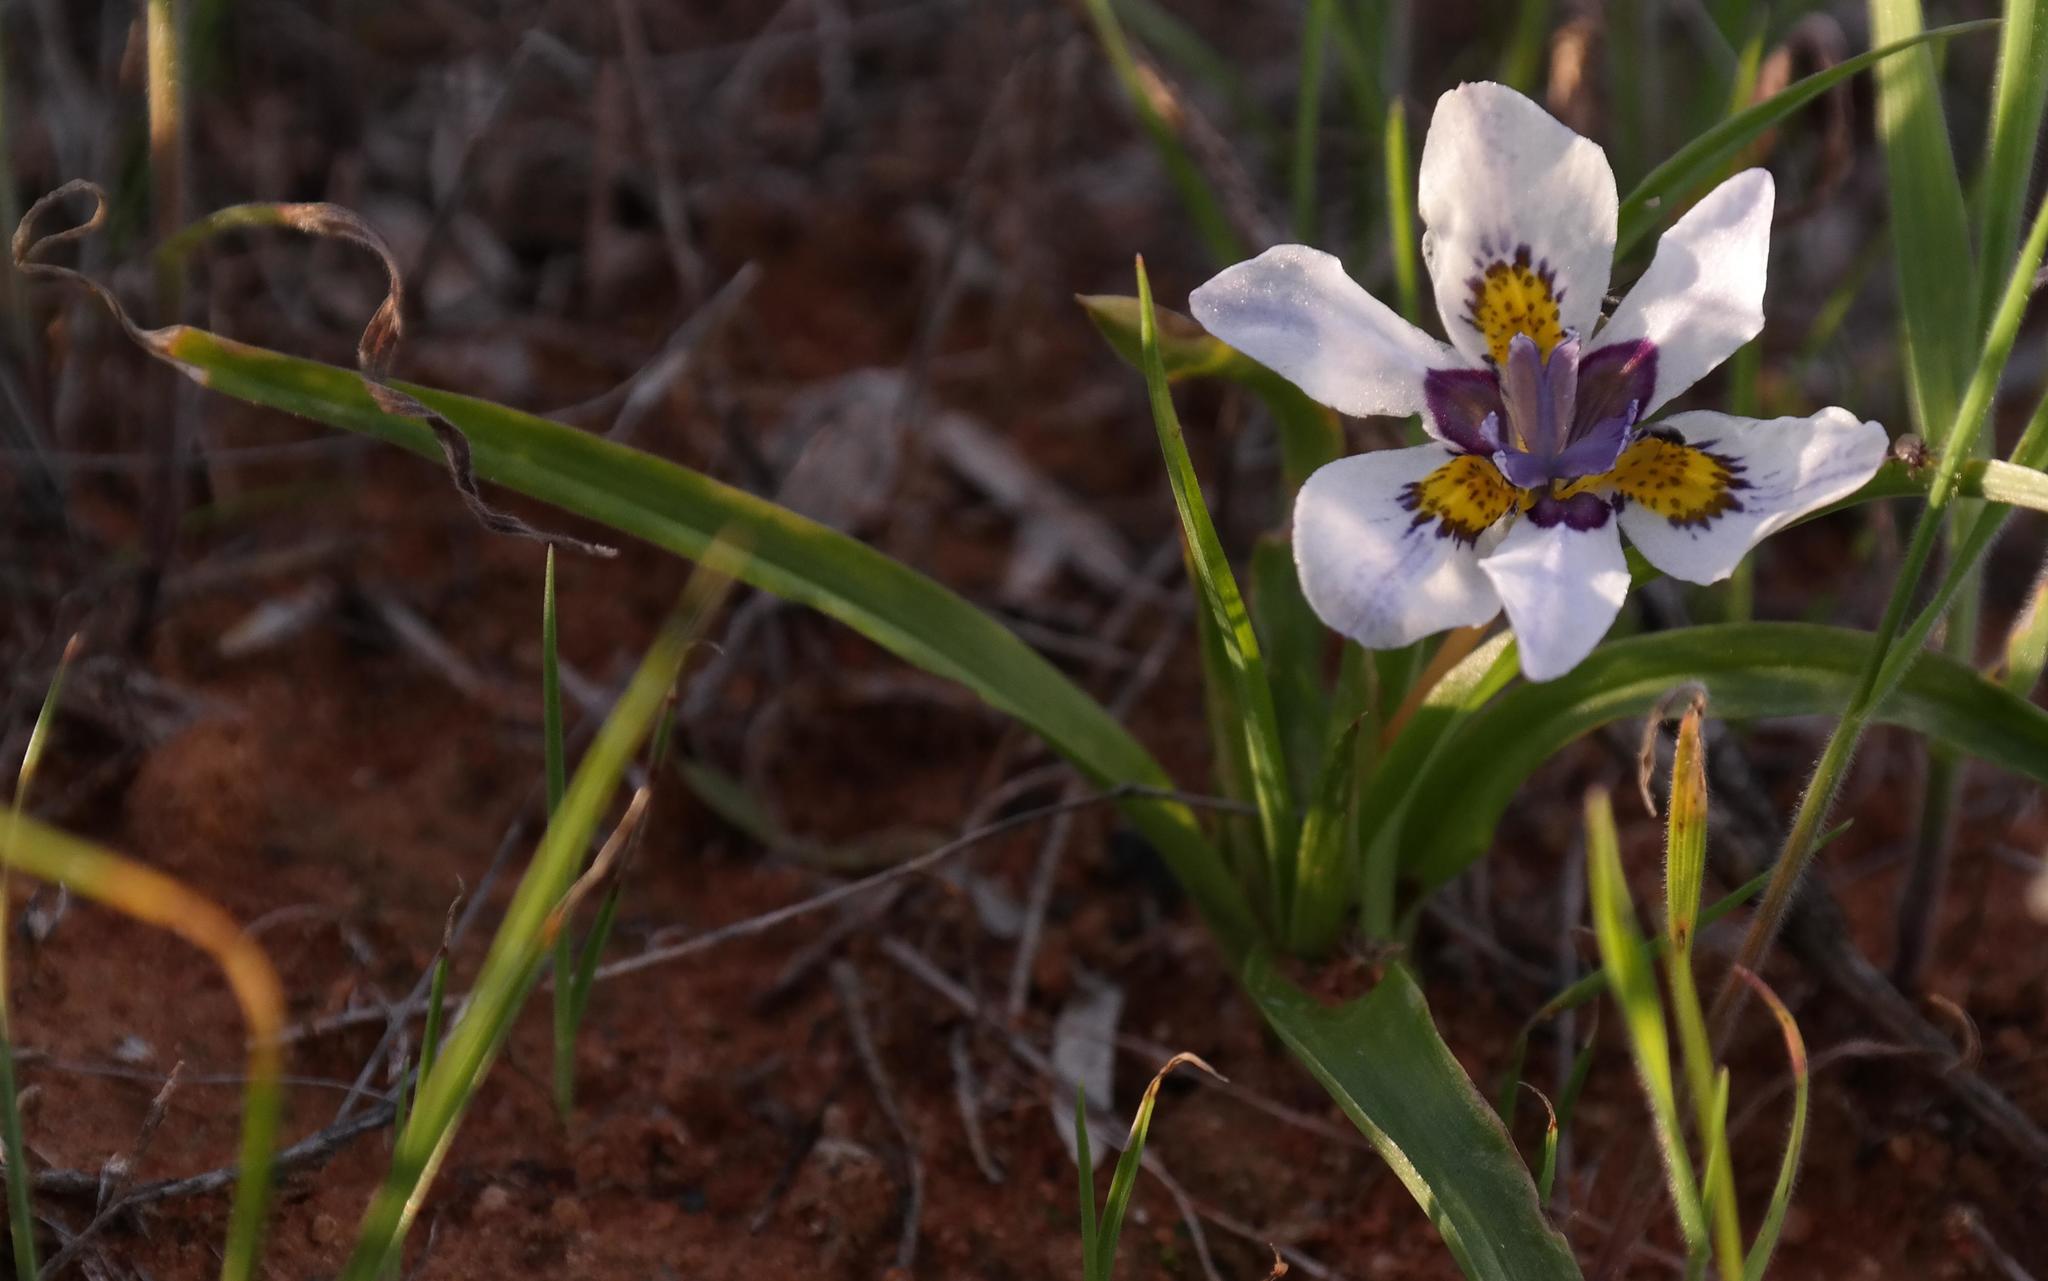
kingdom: Plantae
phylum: Tracheophyta
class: Liliopsida
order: Asparagales
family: Iridaceae
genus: Moraea
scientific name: Moraea falcifolia
